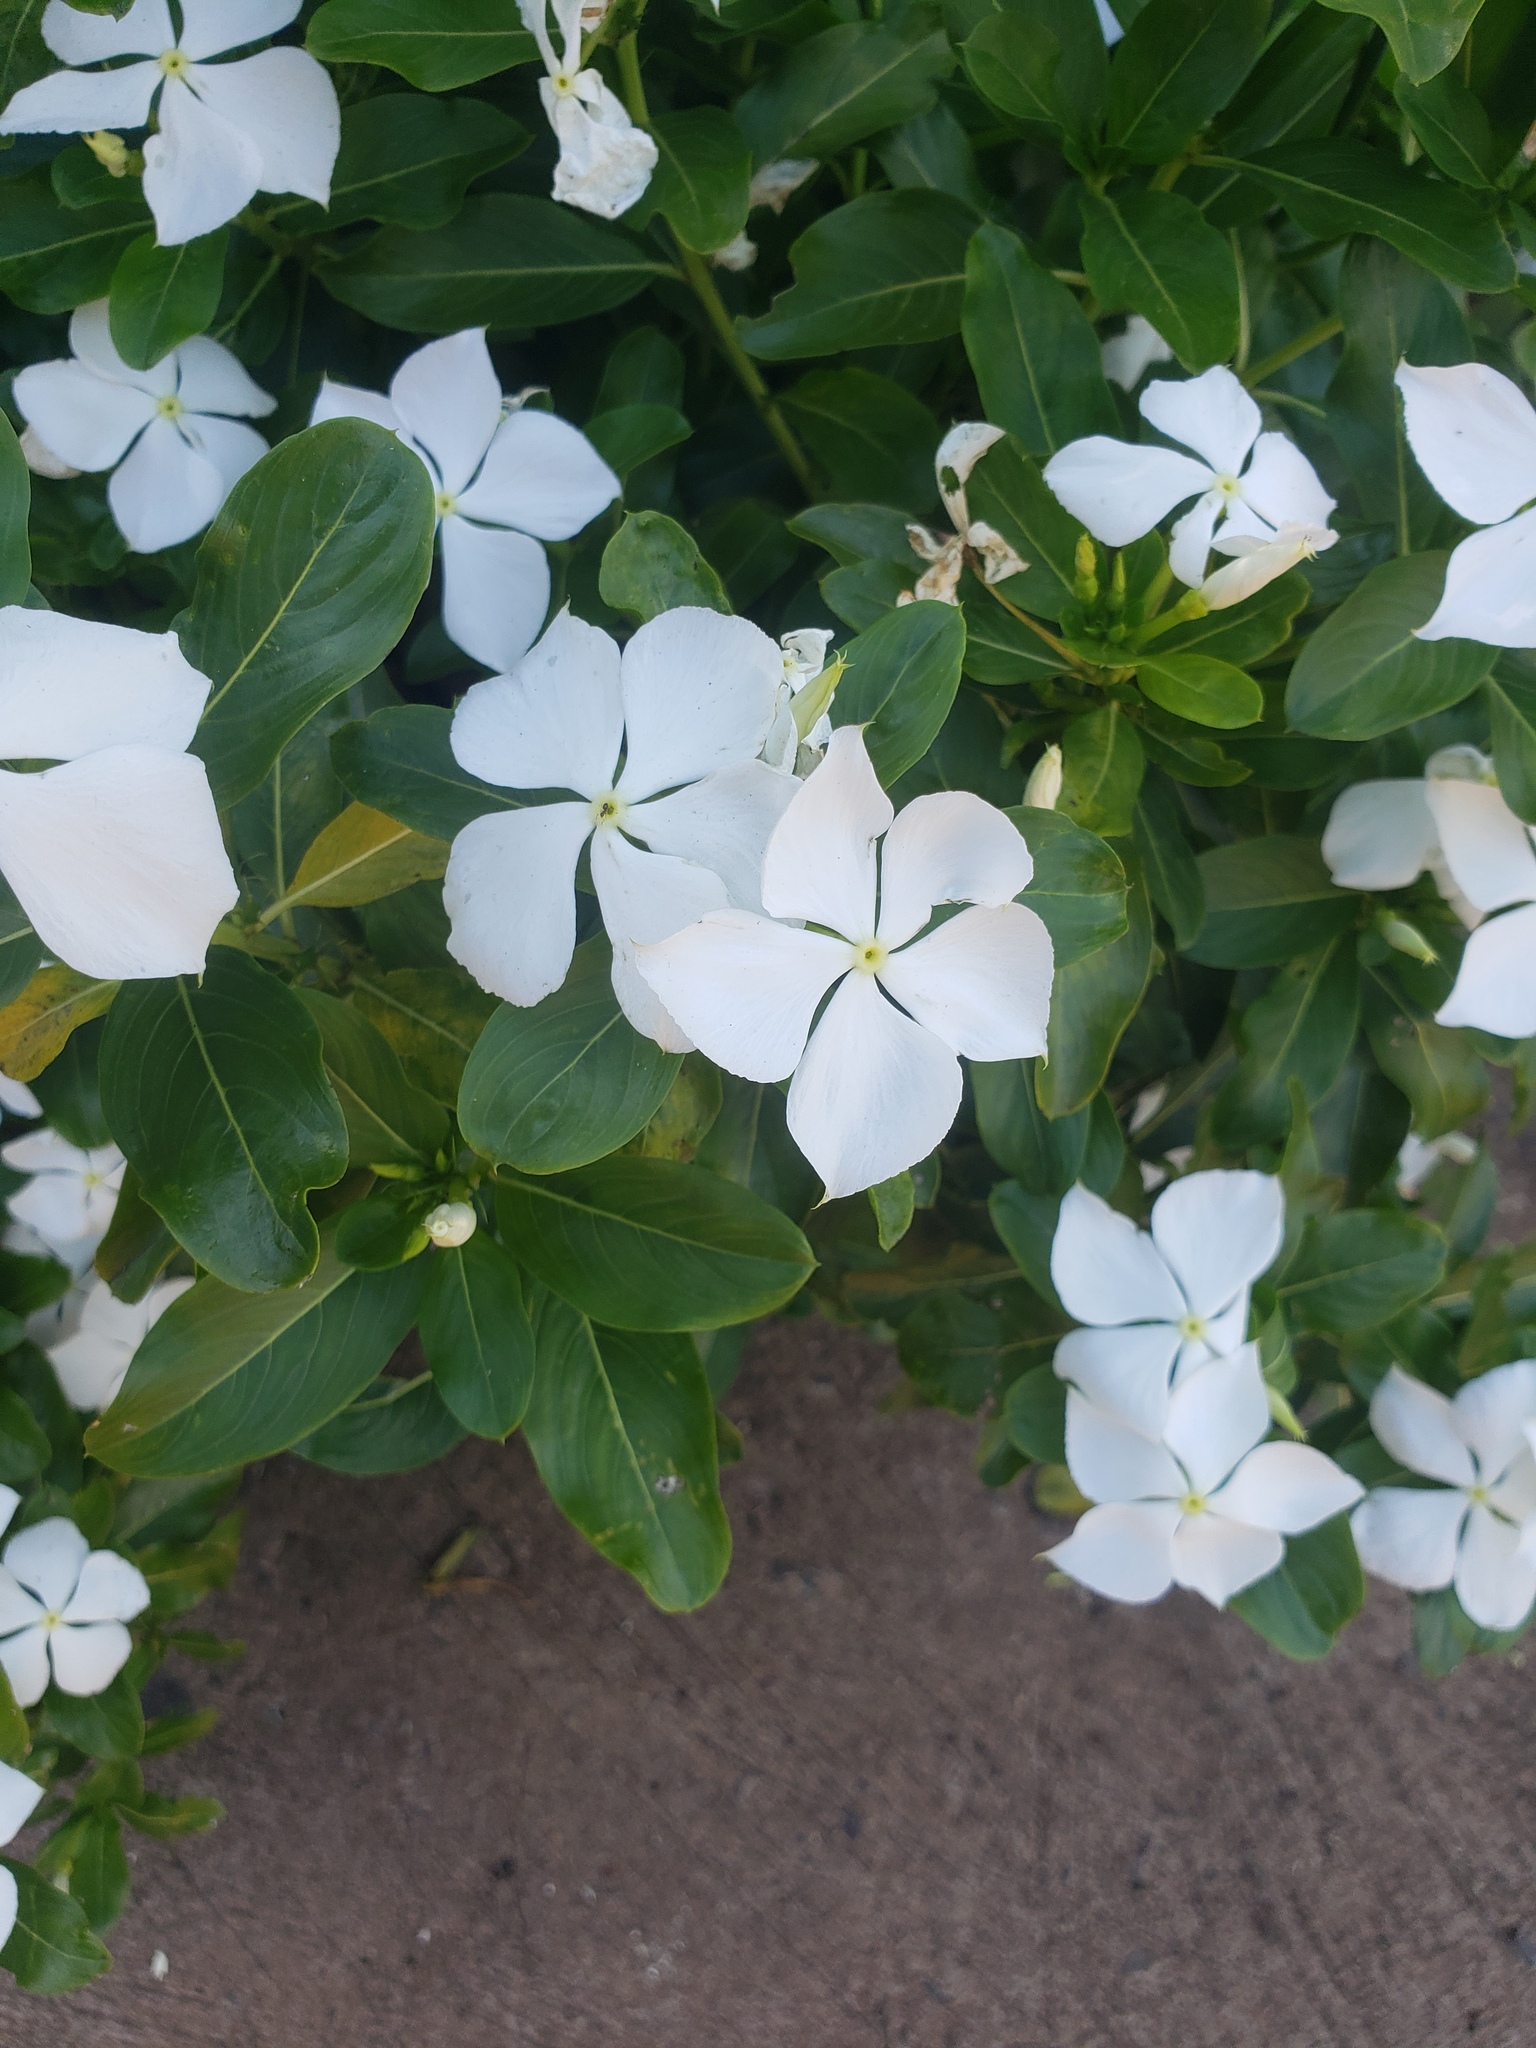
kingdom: Plantae
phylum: Tracheophyta
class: Magnoliopsida
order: Gentianales
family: Apocynaceae
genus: Catharanthus
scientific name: Catharanthus roseus
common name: Madagascar periwinkle
